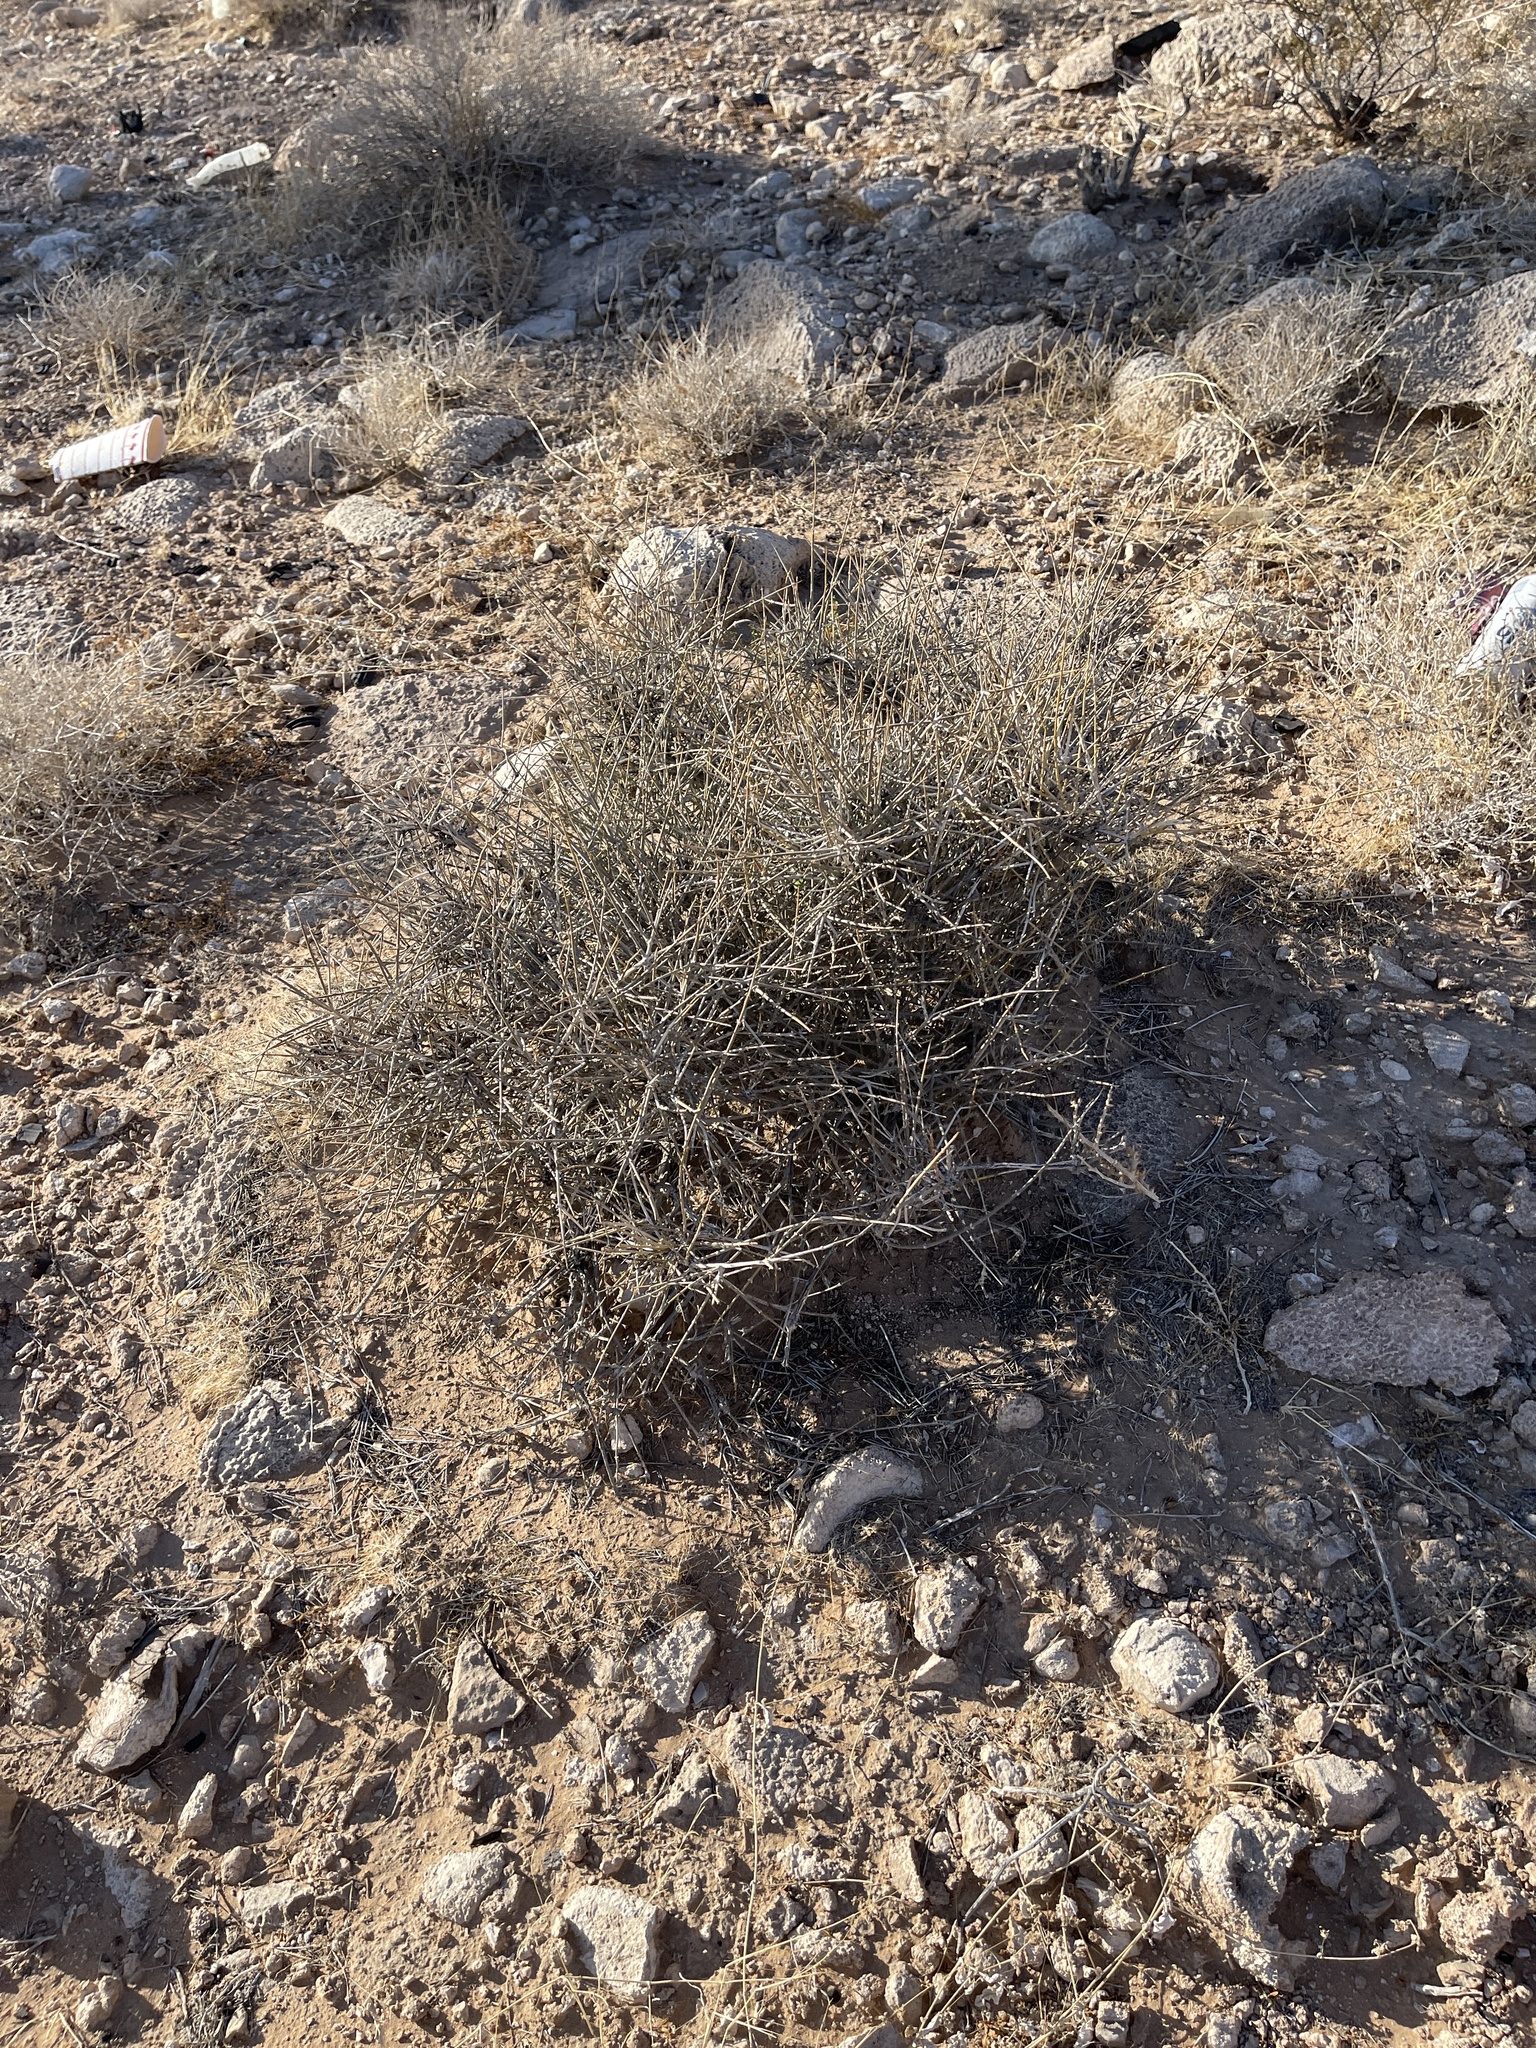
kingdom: Plantae
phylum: Tracheophyta
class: Gnetopsida
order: Ephedrales
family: Ephedraceae
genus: Ephedra
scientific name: Ephedra nevadensis
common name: Gray ephedra
